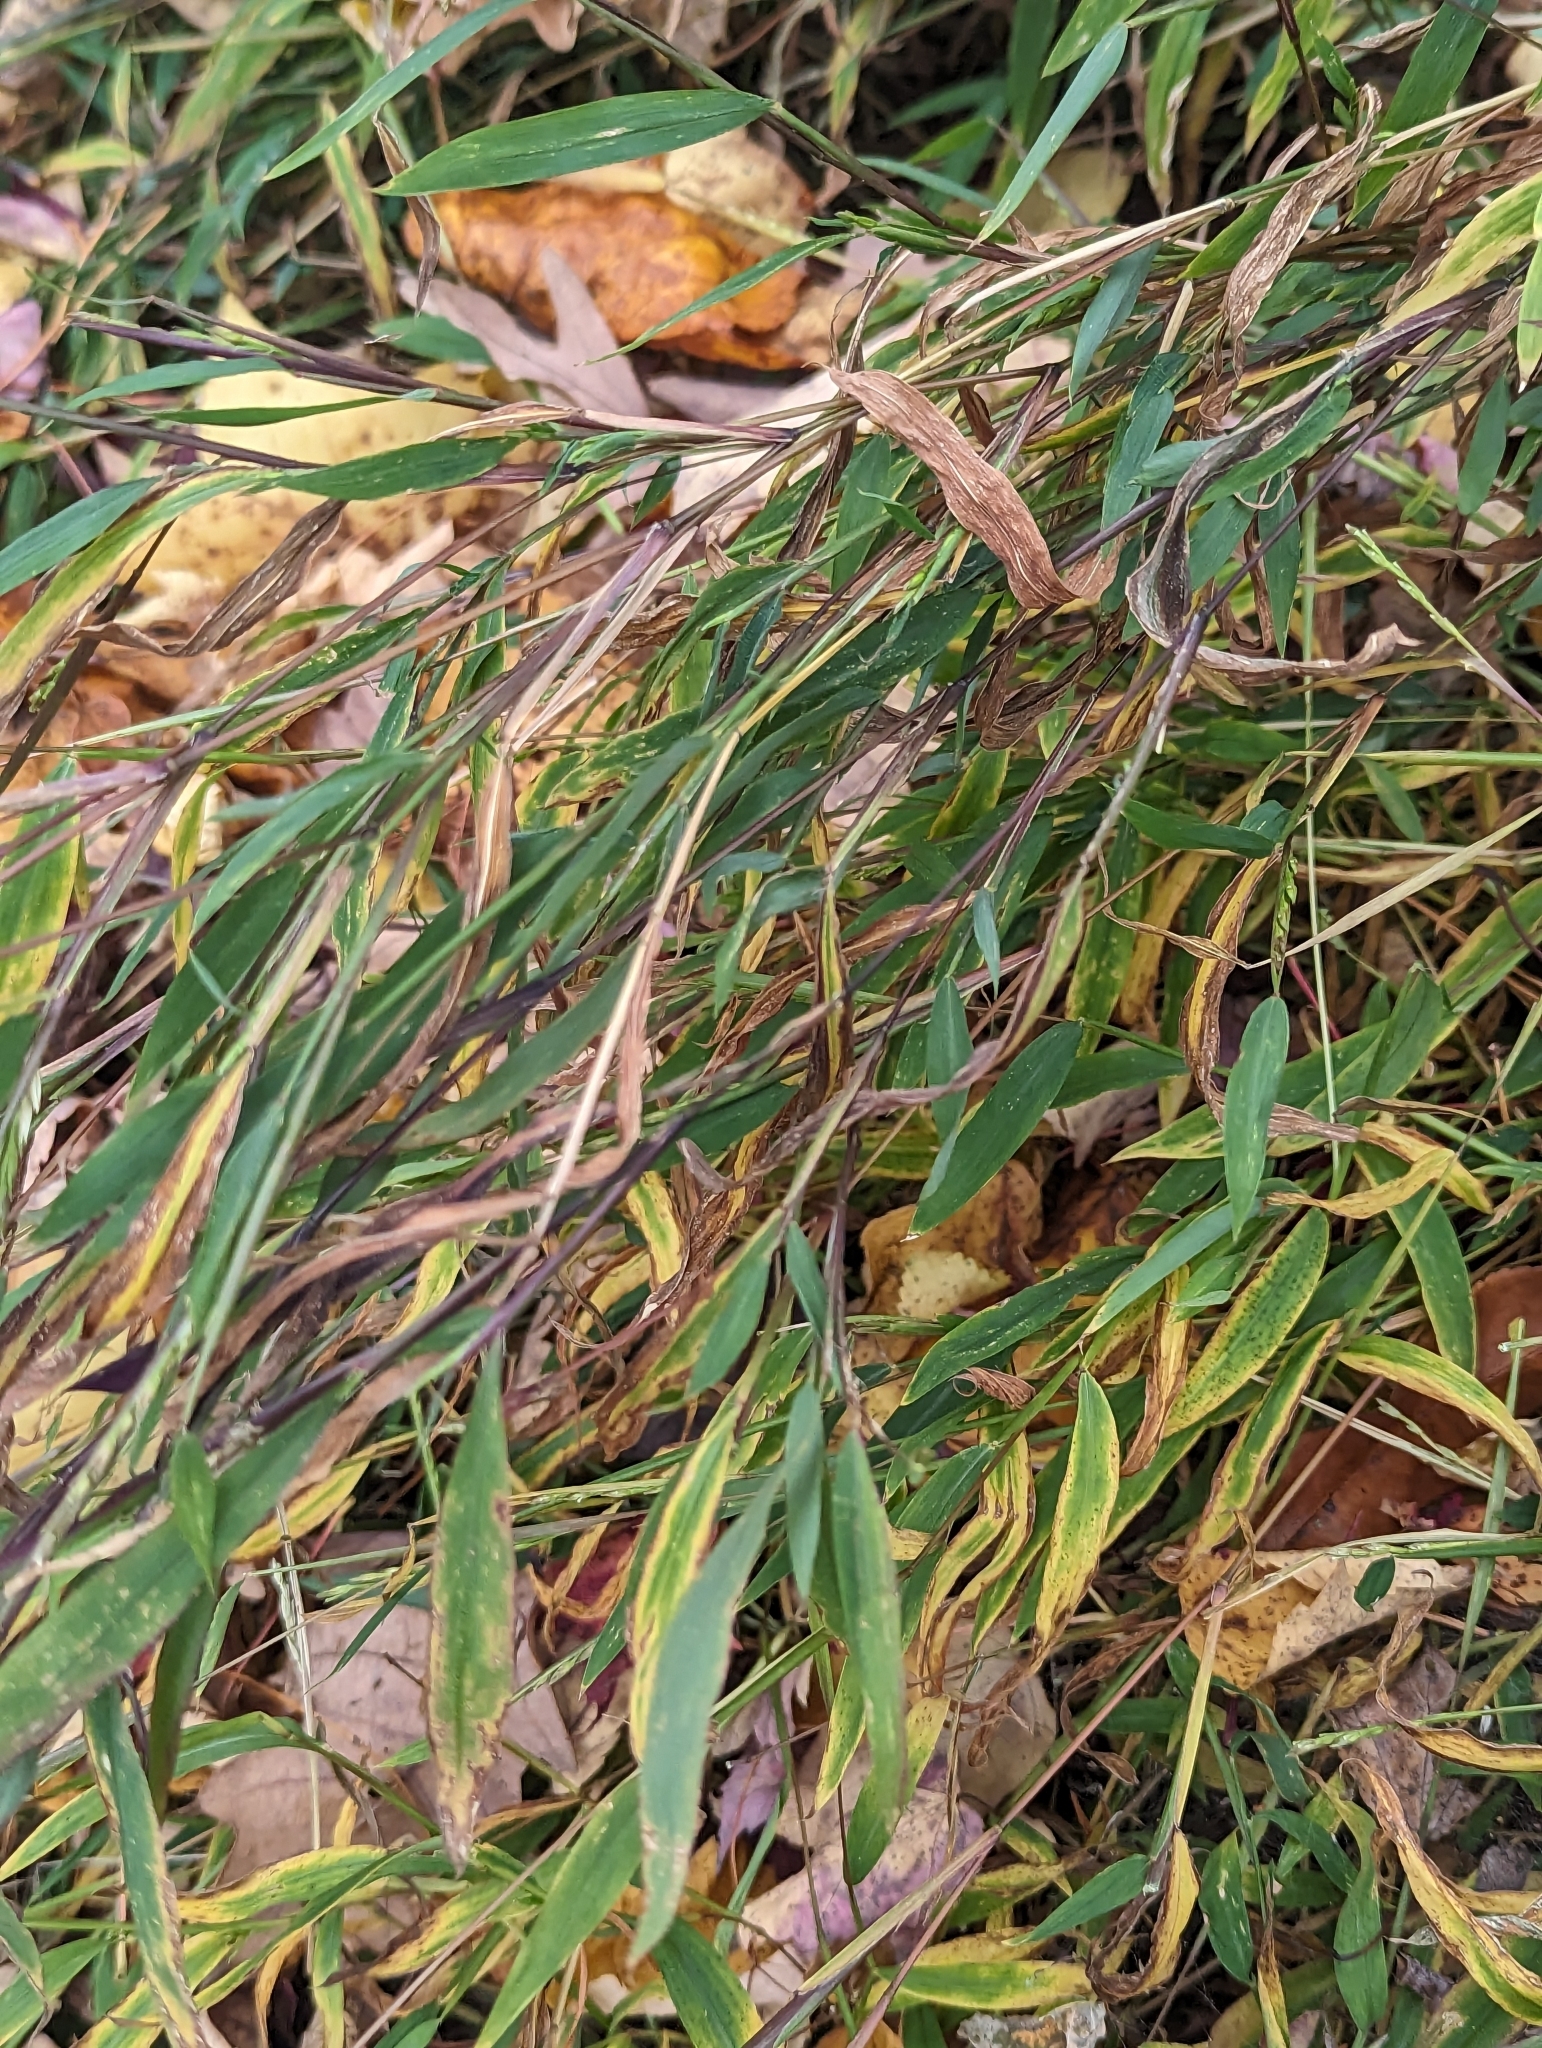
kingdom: Plantae
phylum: Tracheophyta
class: Liliopsida
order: Poales
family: Poaceae
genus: Microstegium
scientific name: Microstegium vimineum
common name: Japanese stiltgrass
